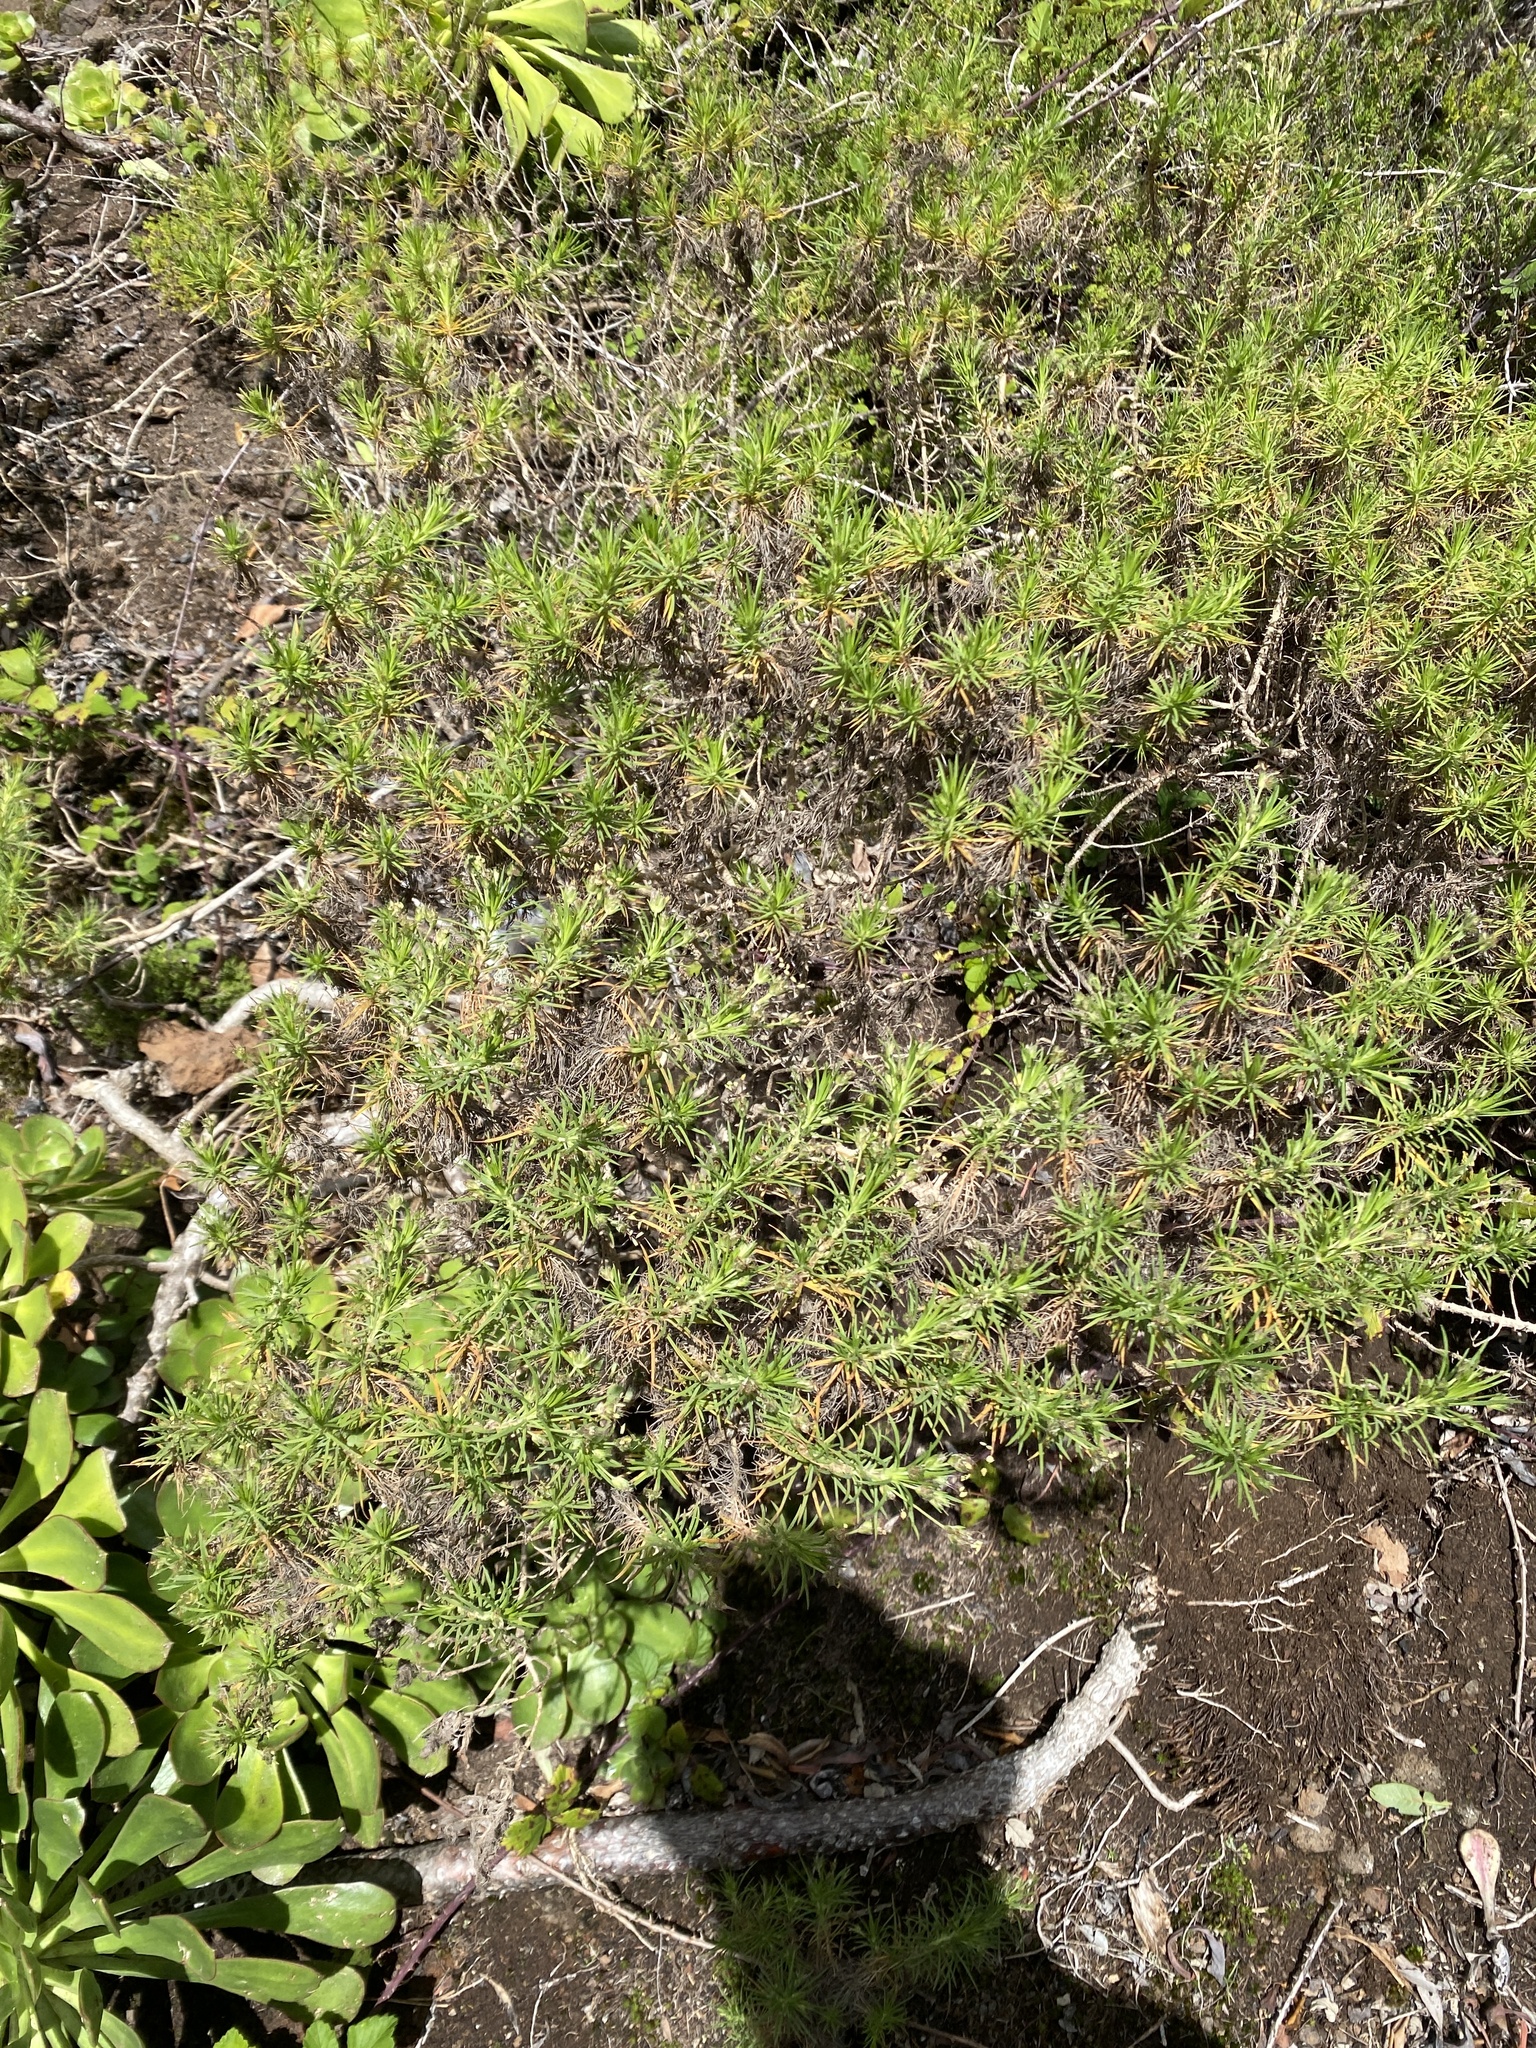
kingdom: Plantae
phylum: Tracheophyta
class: Magnoliopsida
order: Lamiales
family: Plantaginaceae
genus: Plantago
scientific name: Plantago arborescens
